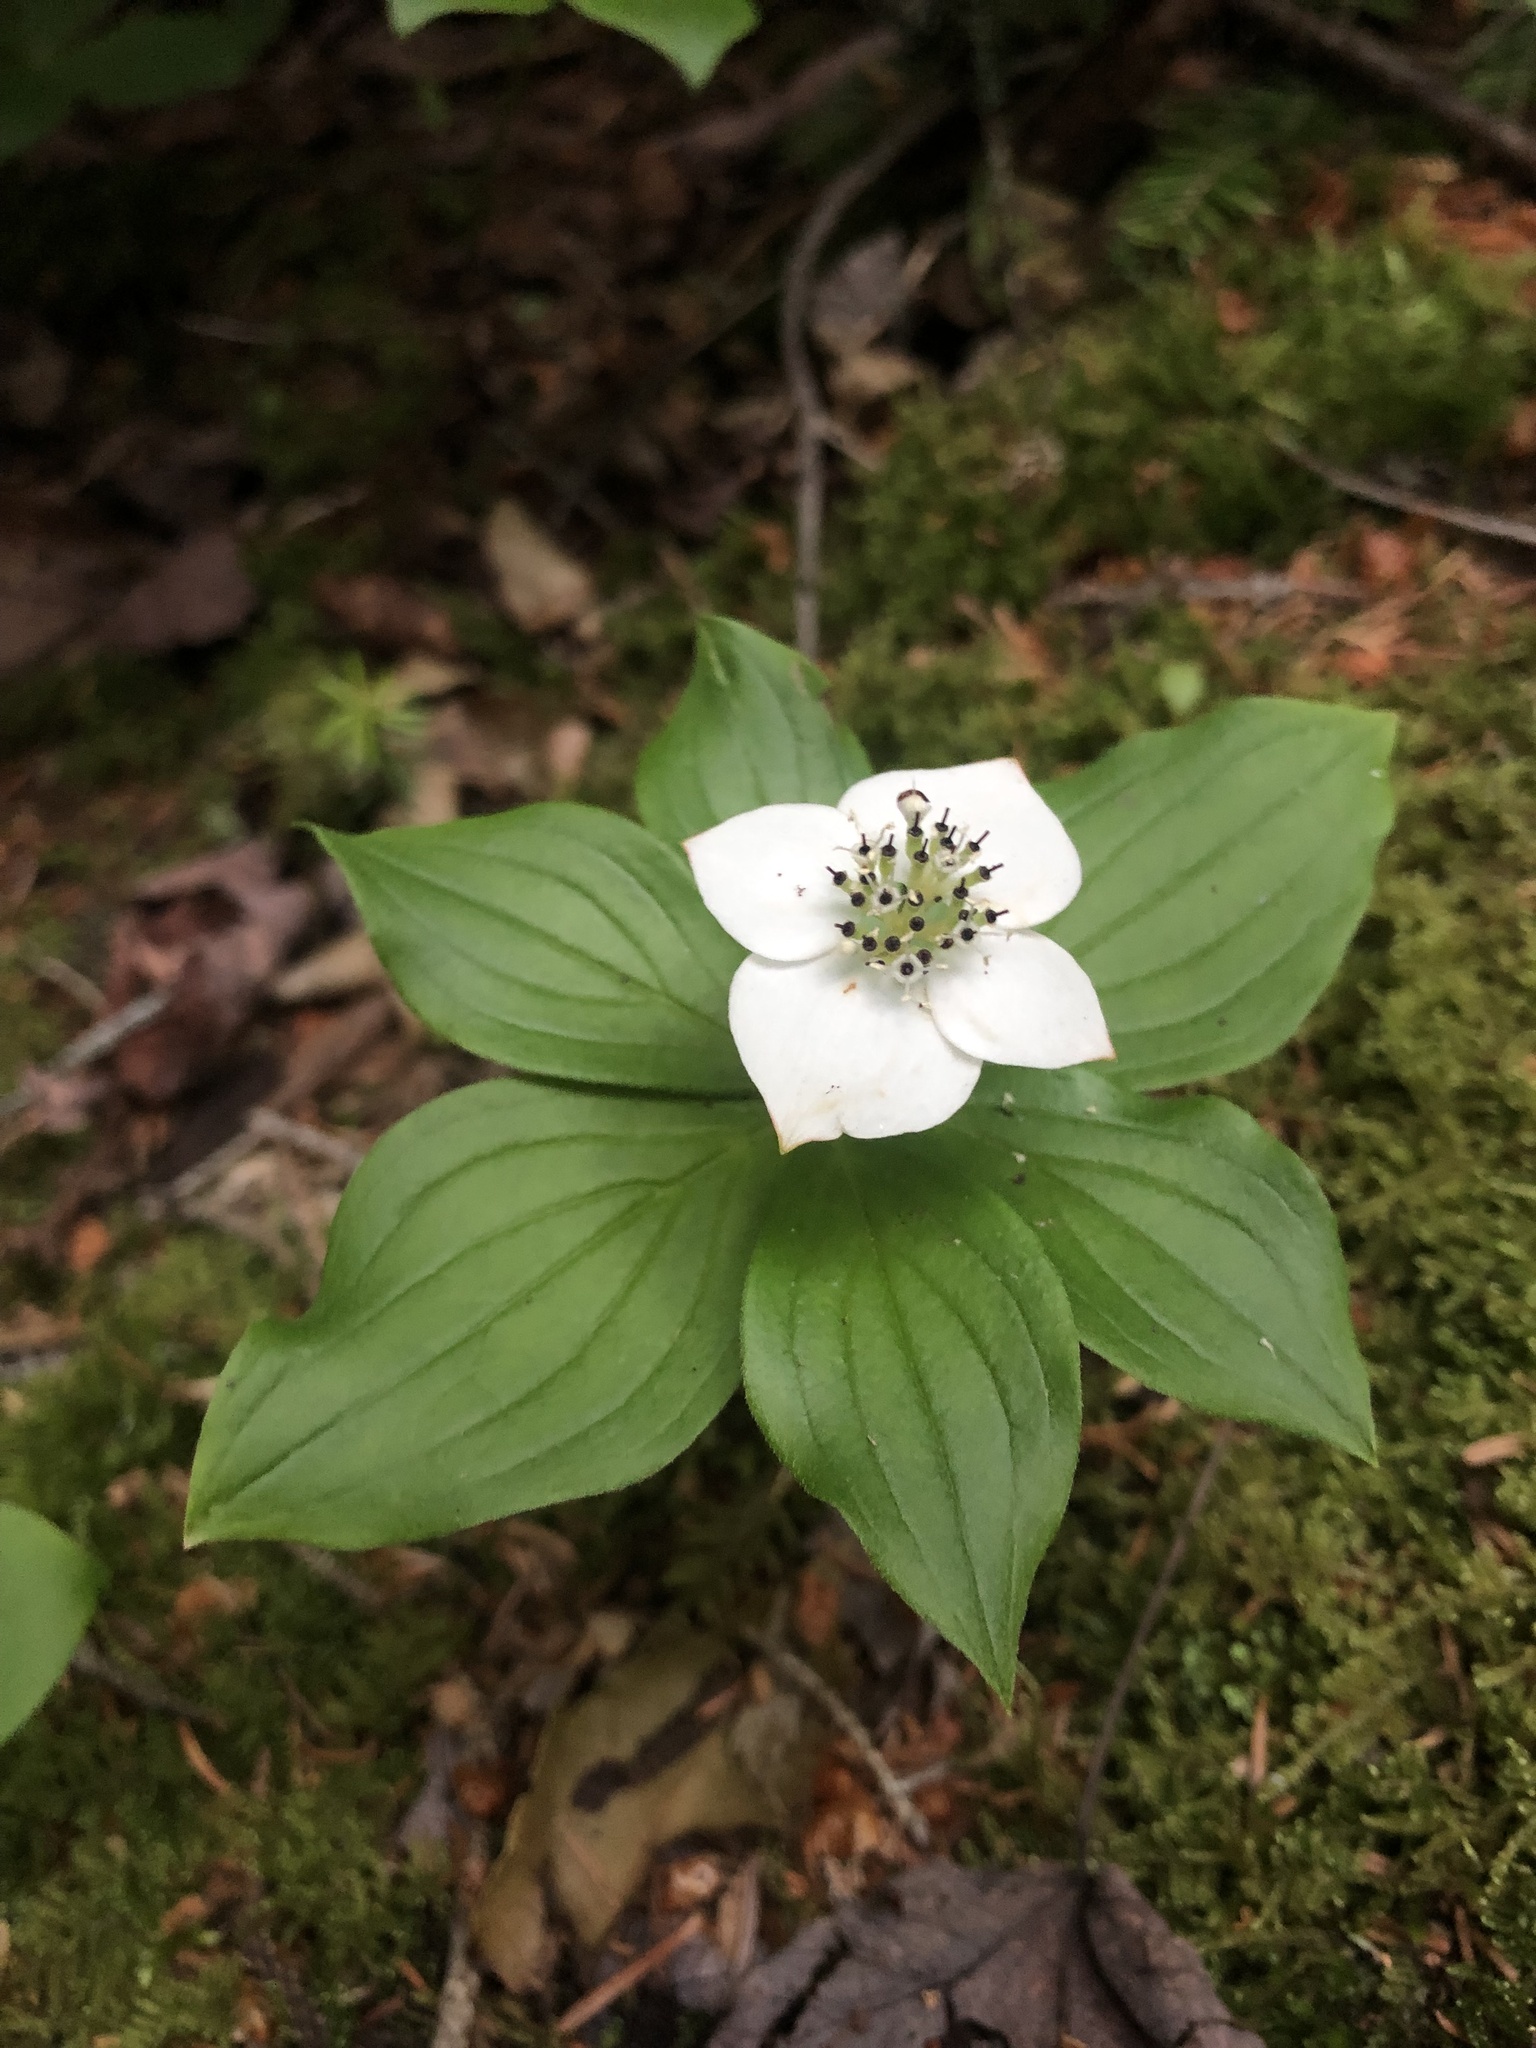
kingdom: Plantae
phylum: Tracheophyta
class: Magnoliopsida
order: Cornales
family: Cornaceae
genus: Cornus
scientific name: Cornus canadensis
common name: Creeping dogwood
